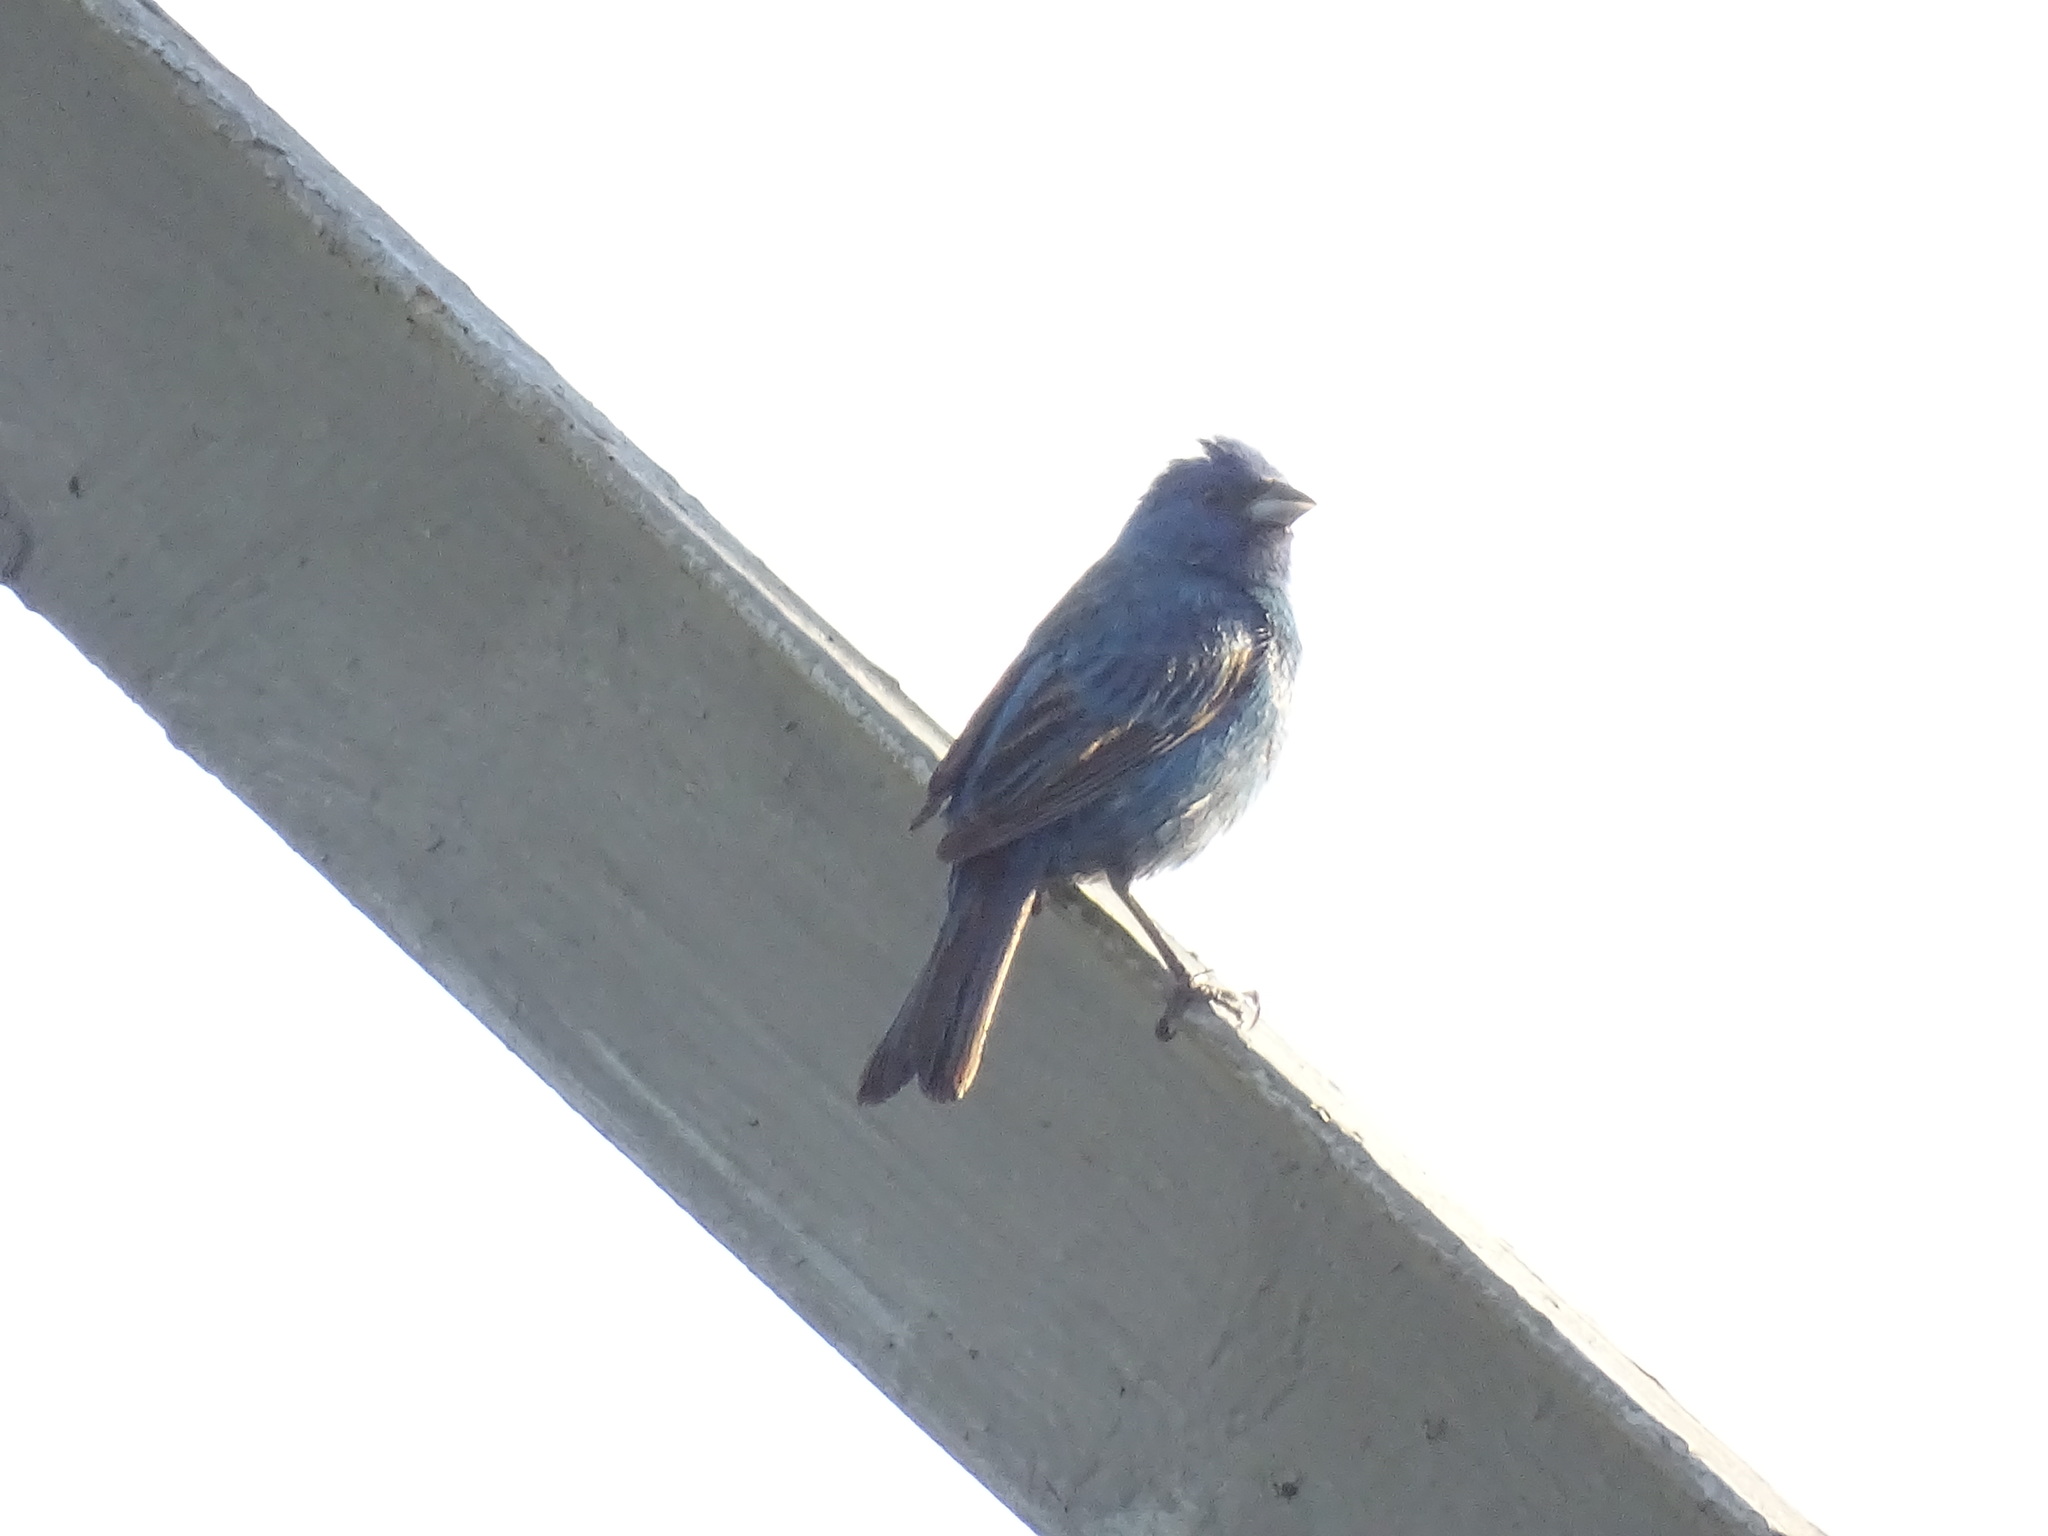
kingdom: Animalia
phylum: Chordata
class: Aves
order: Passeriformes
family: Cardinalidae
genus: Passerina
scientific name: Passerina cyanea
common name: Indigo bunting
